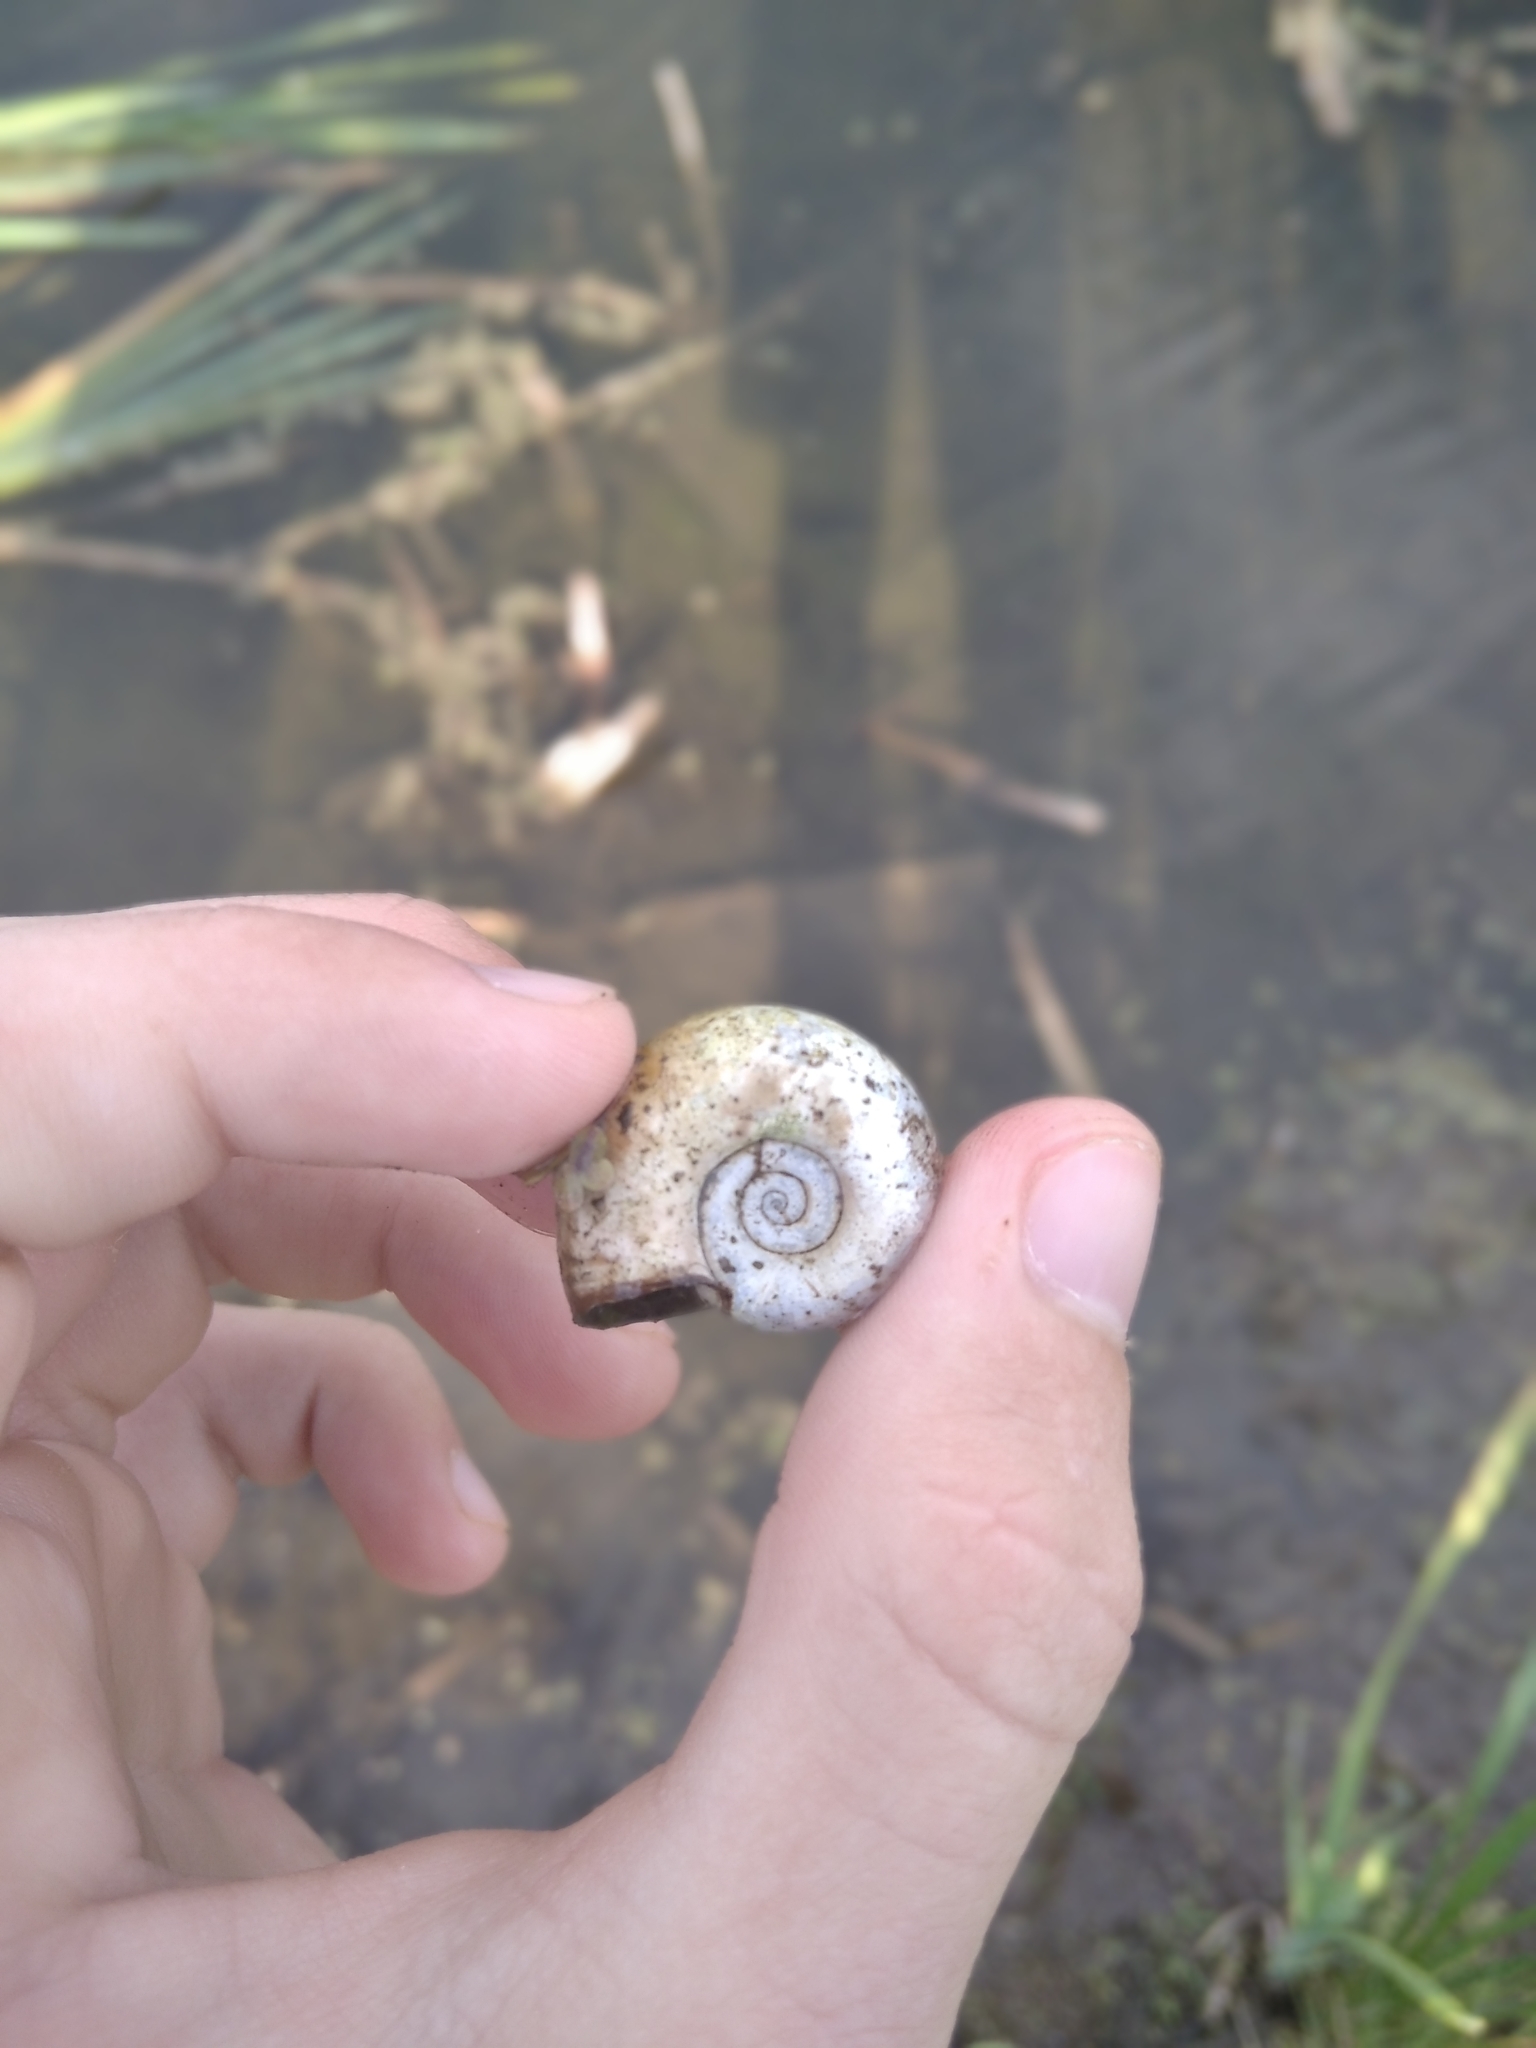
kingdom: Animalia
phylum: Mollusca
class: Gastropoda
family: Planorbidae
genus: Planorbarius
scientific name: Planorbarius corneus
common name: Great ramshorn
